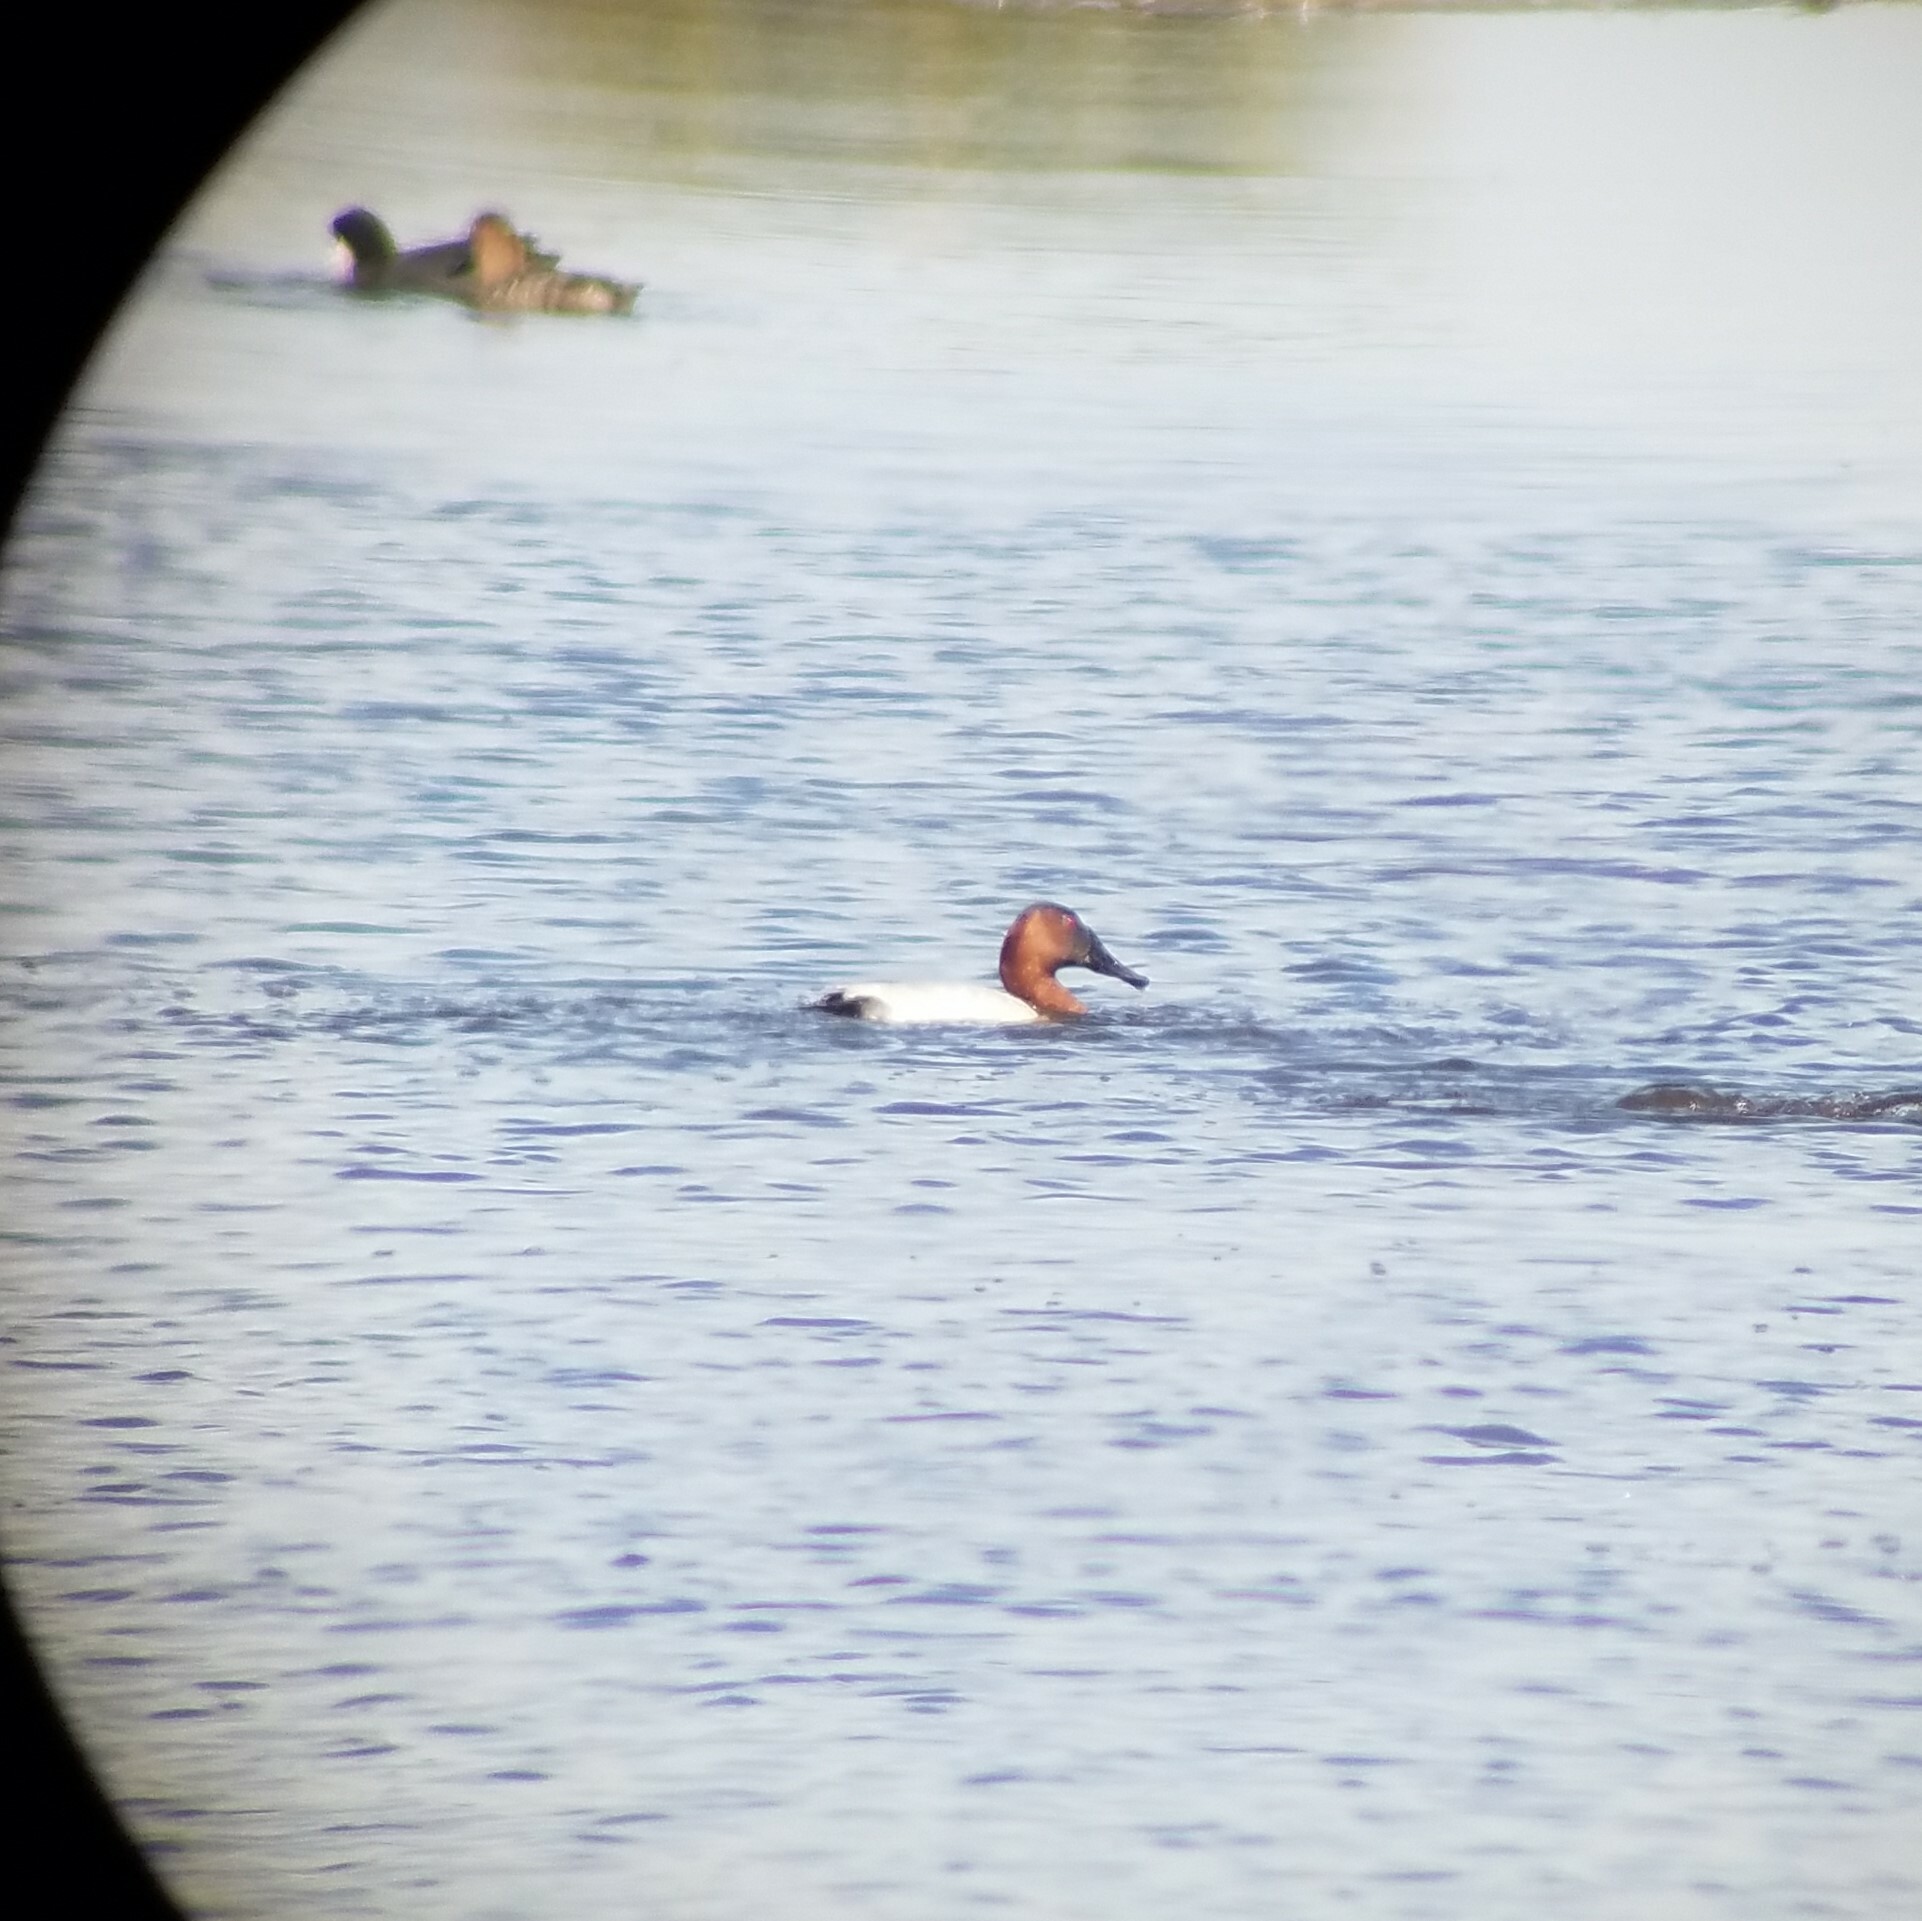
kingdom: Animalia
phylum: Chordata
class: Aves
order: Anseriformes
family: Anatidae
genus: Aythya
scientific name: Aythya valisineria
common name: Canvasback
